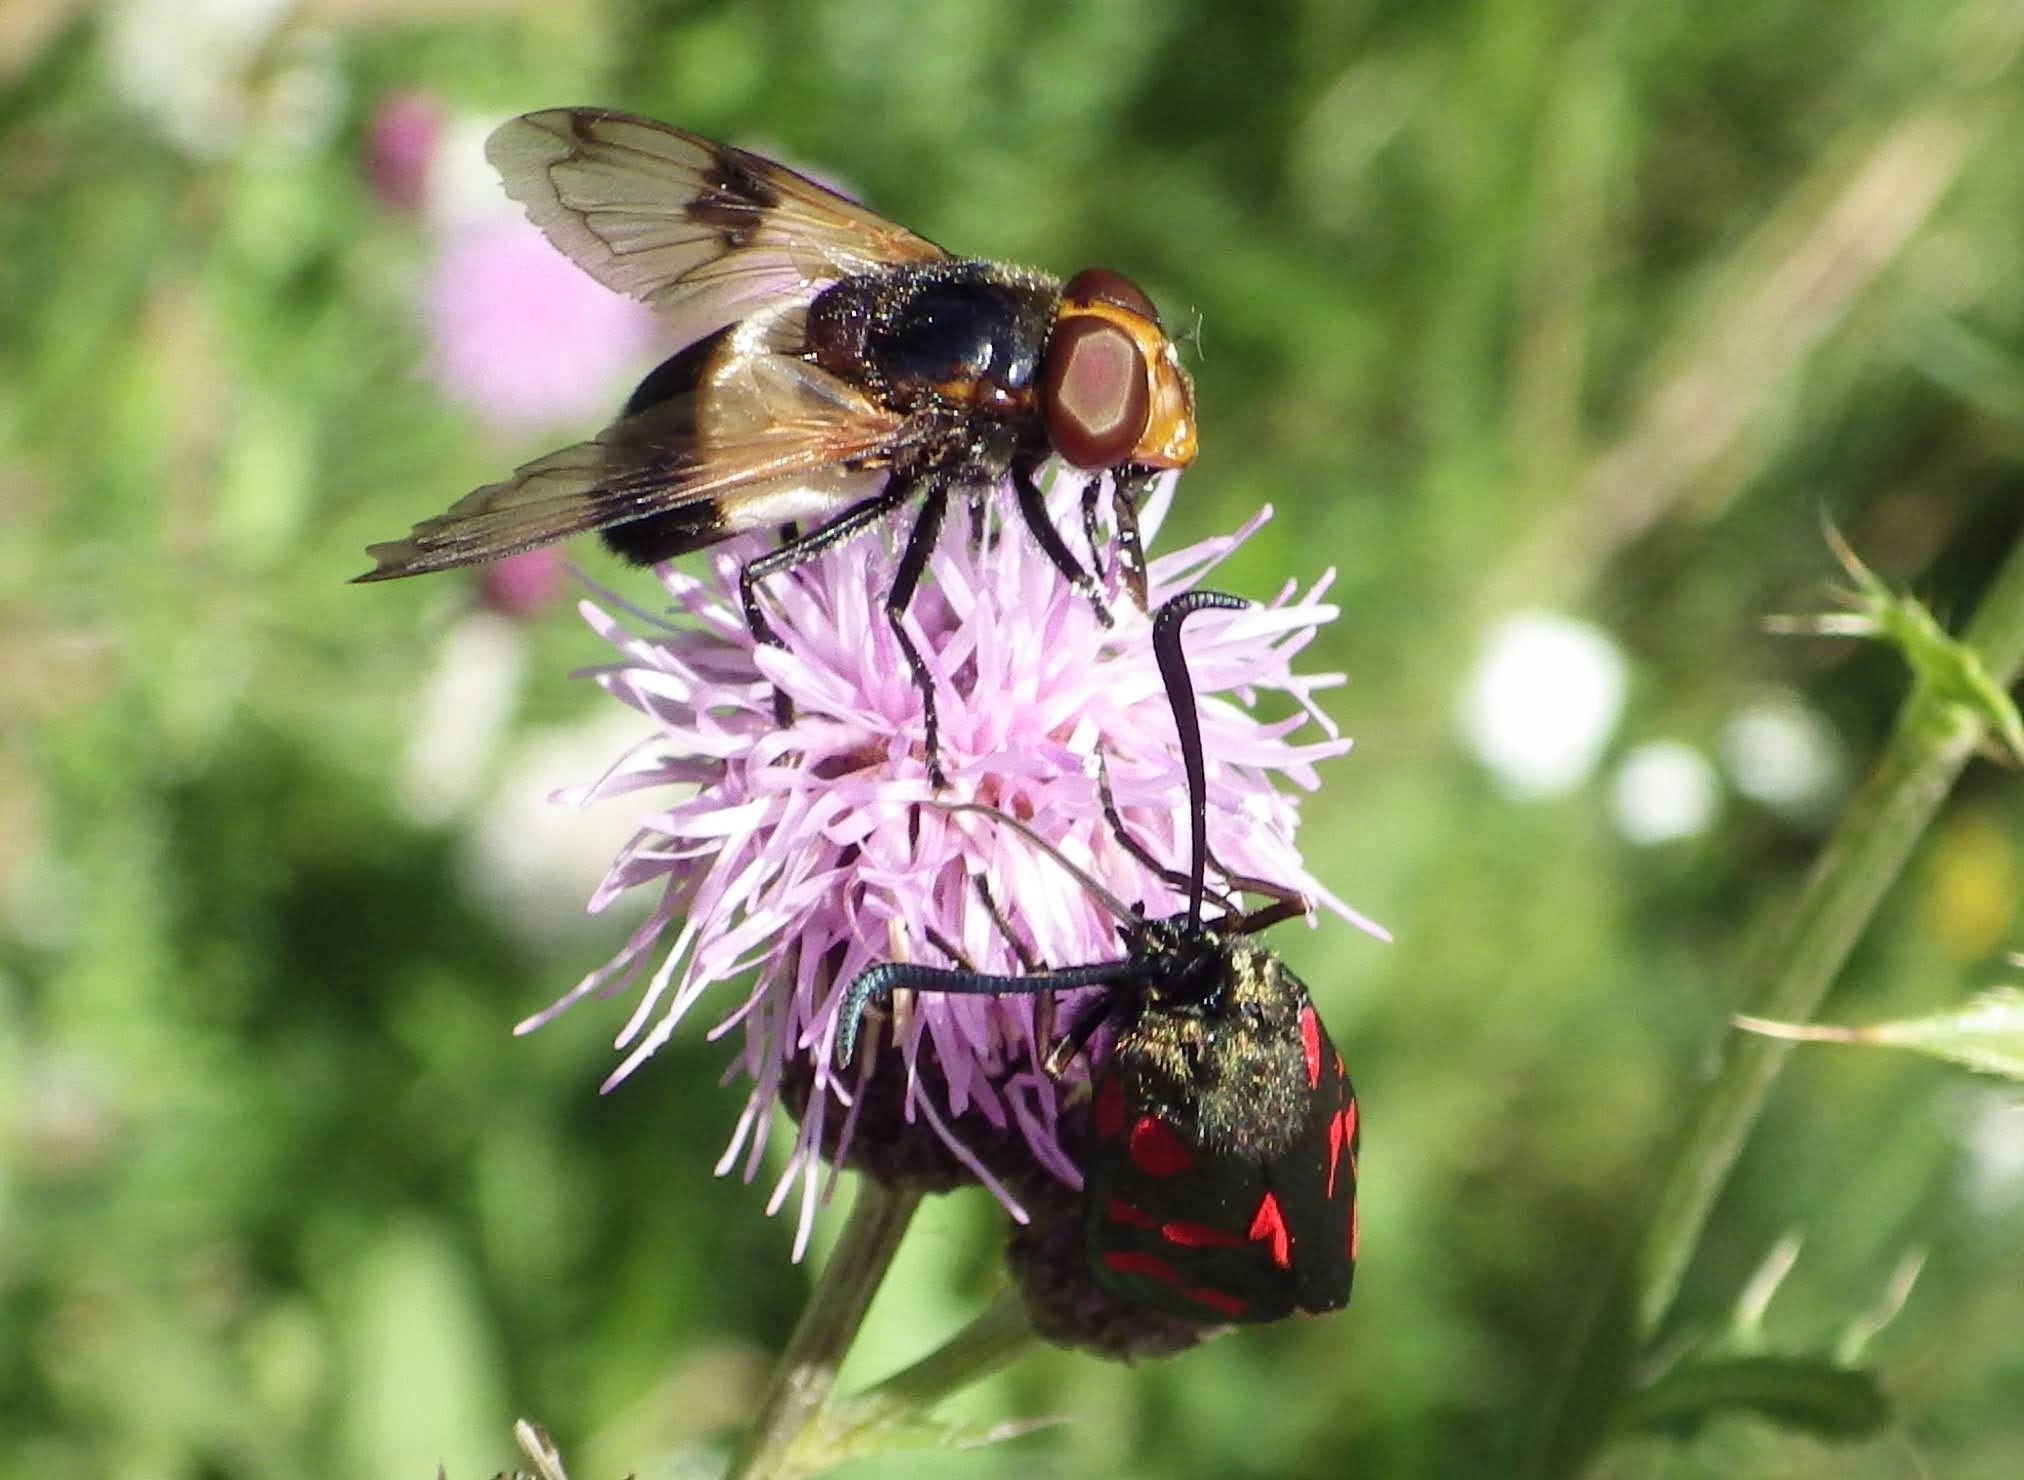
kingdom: Animalia
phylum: Arthropoda
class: Insecta
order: Diptera
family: Syrphidae
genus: Volucella
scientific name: Volucella pellucens
